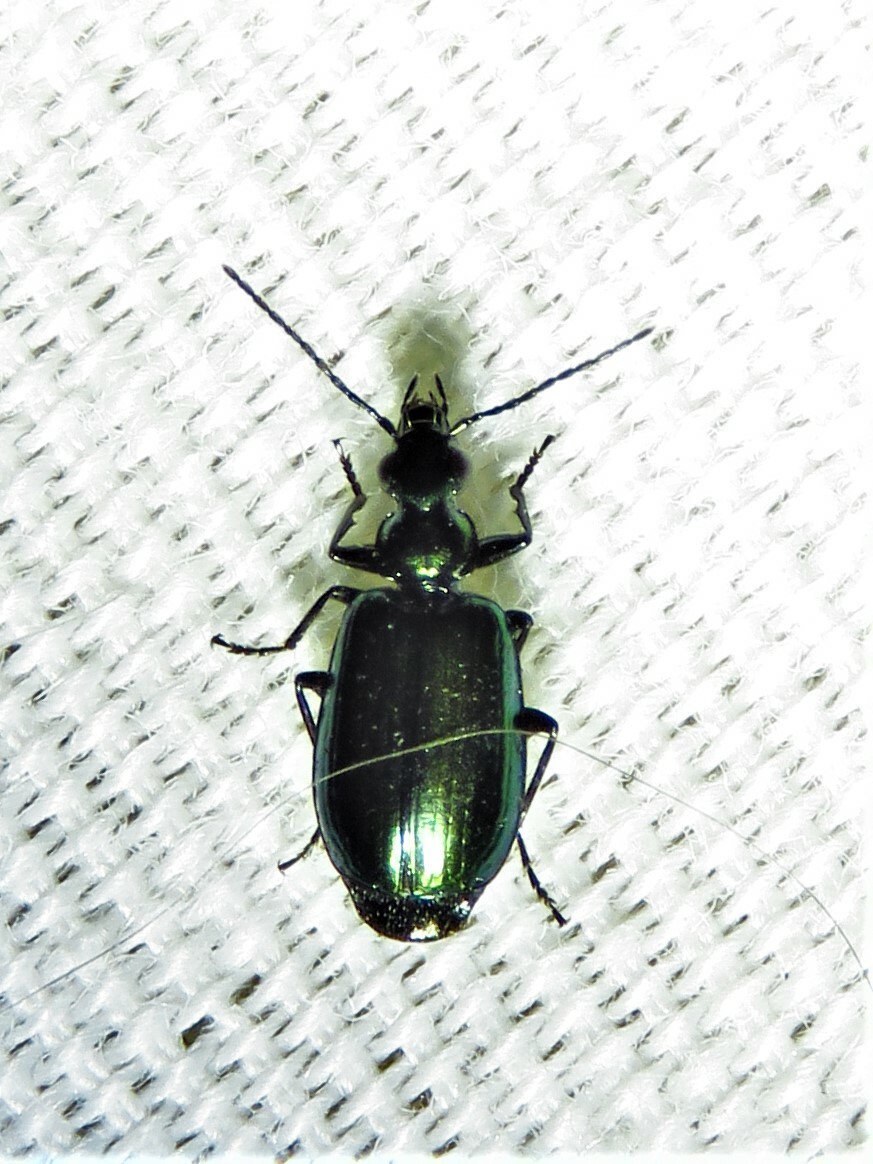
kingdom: Animalia
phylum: Arthropoda
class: Insecta
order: Coleoptera
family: Carabidae
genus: Lebia
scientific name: Lebia viridis
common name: Flower lebia beetle
